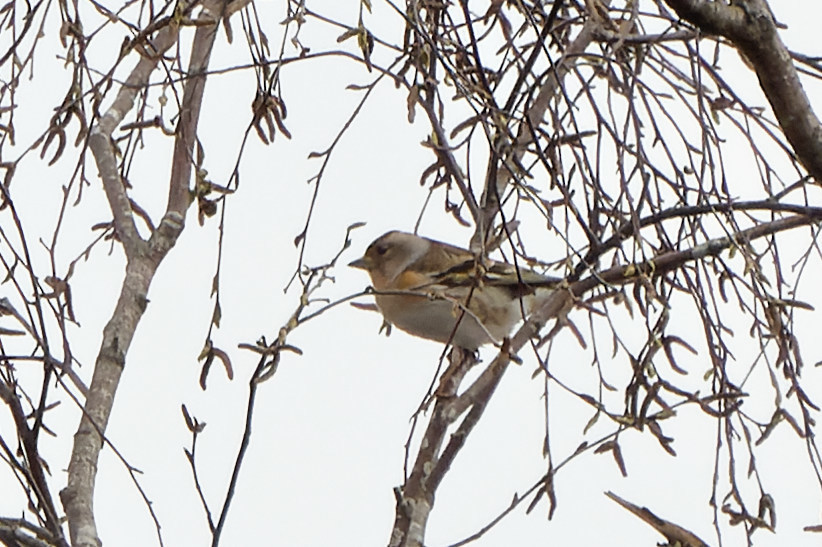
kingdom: Animalia
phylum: Chordata
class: Aves
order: Passeriformes
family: Fringillidae
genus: Fringilla
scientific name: Fringilla montifringilla
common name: Brambling
